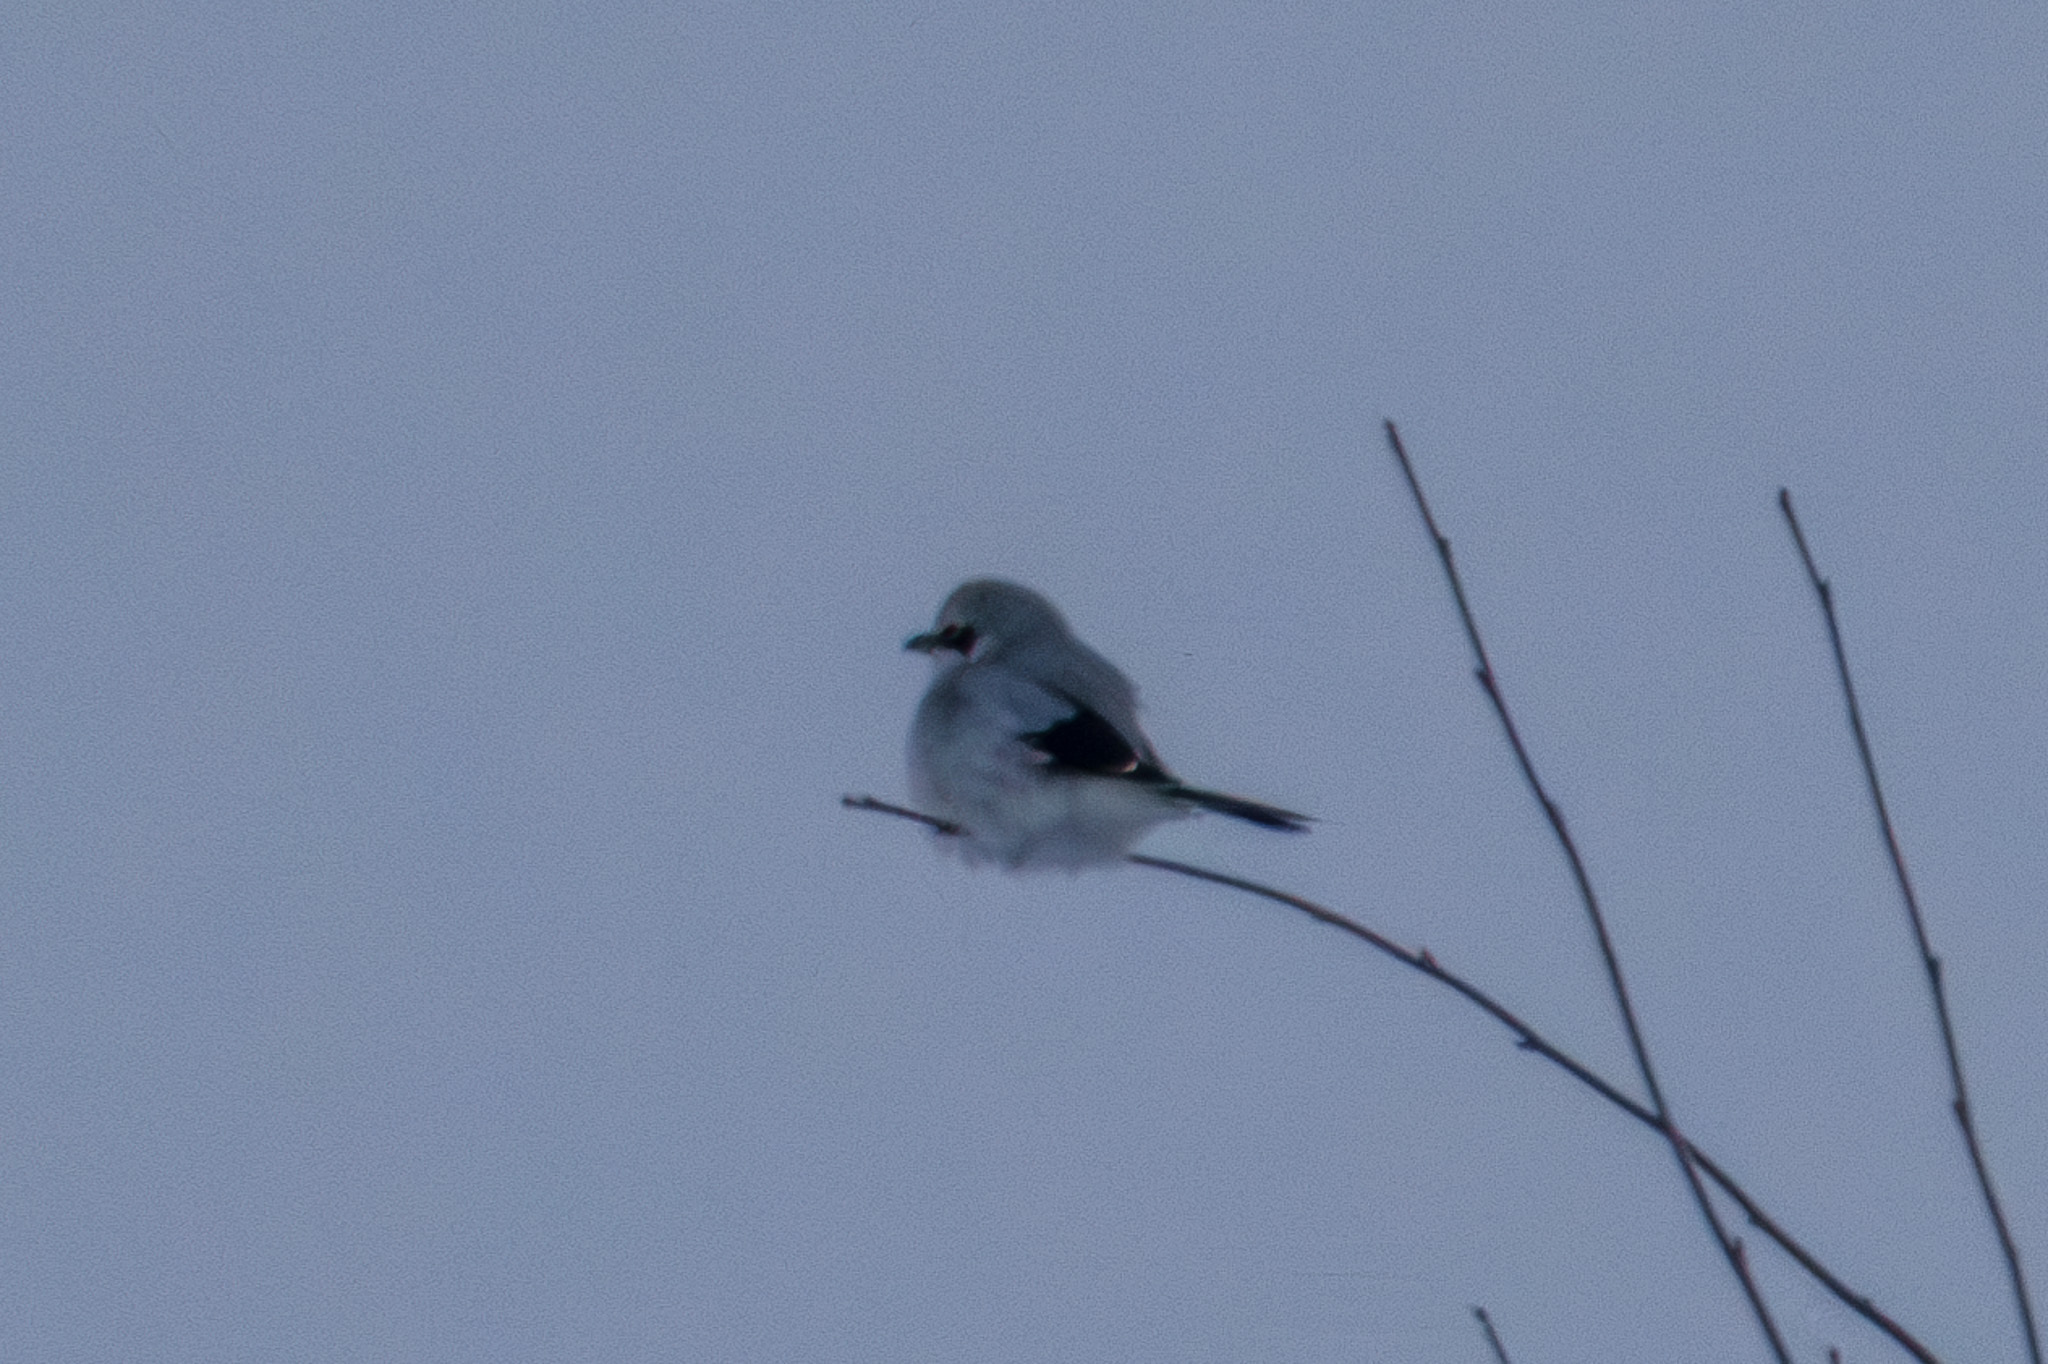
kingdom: Animalia
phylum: Chordata
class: Aves
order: Passeriformes
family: Laniidae
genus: Lanius
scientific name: Lanius excubitor
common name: Great grey shrike
